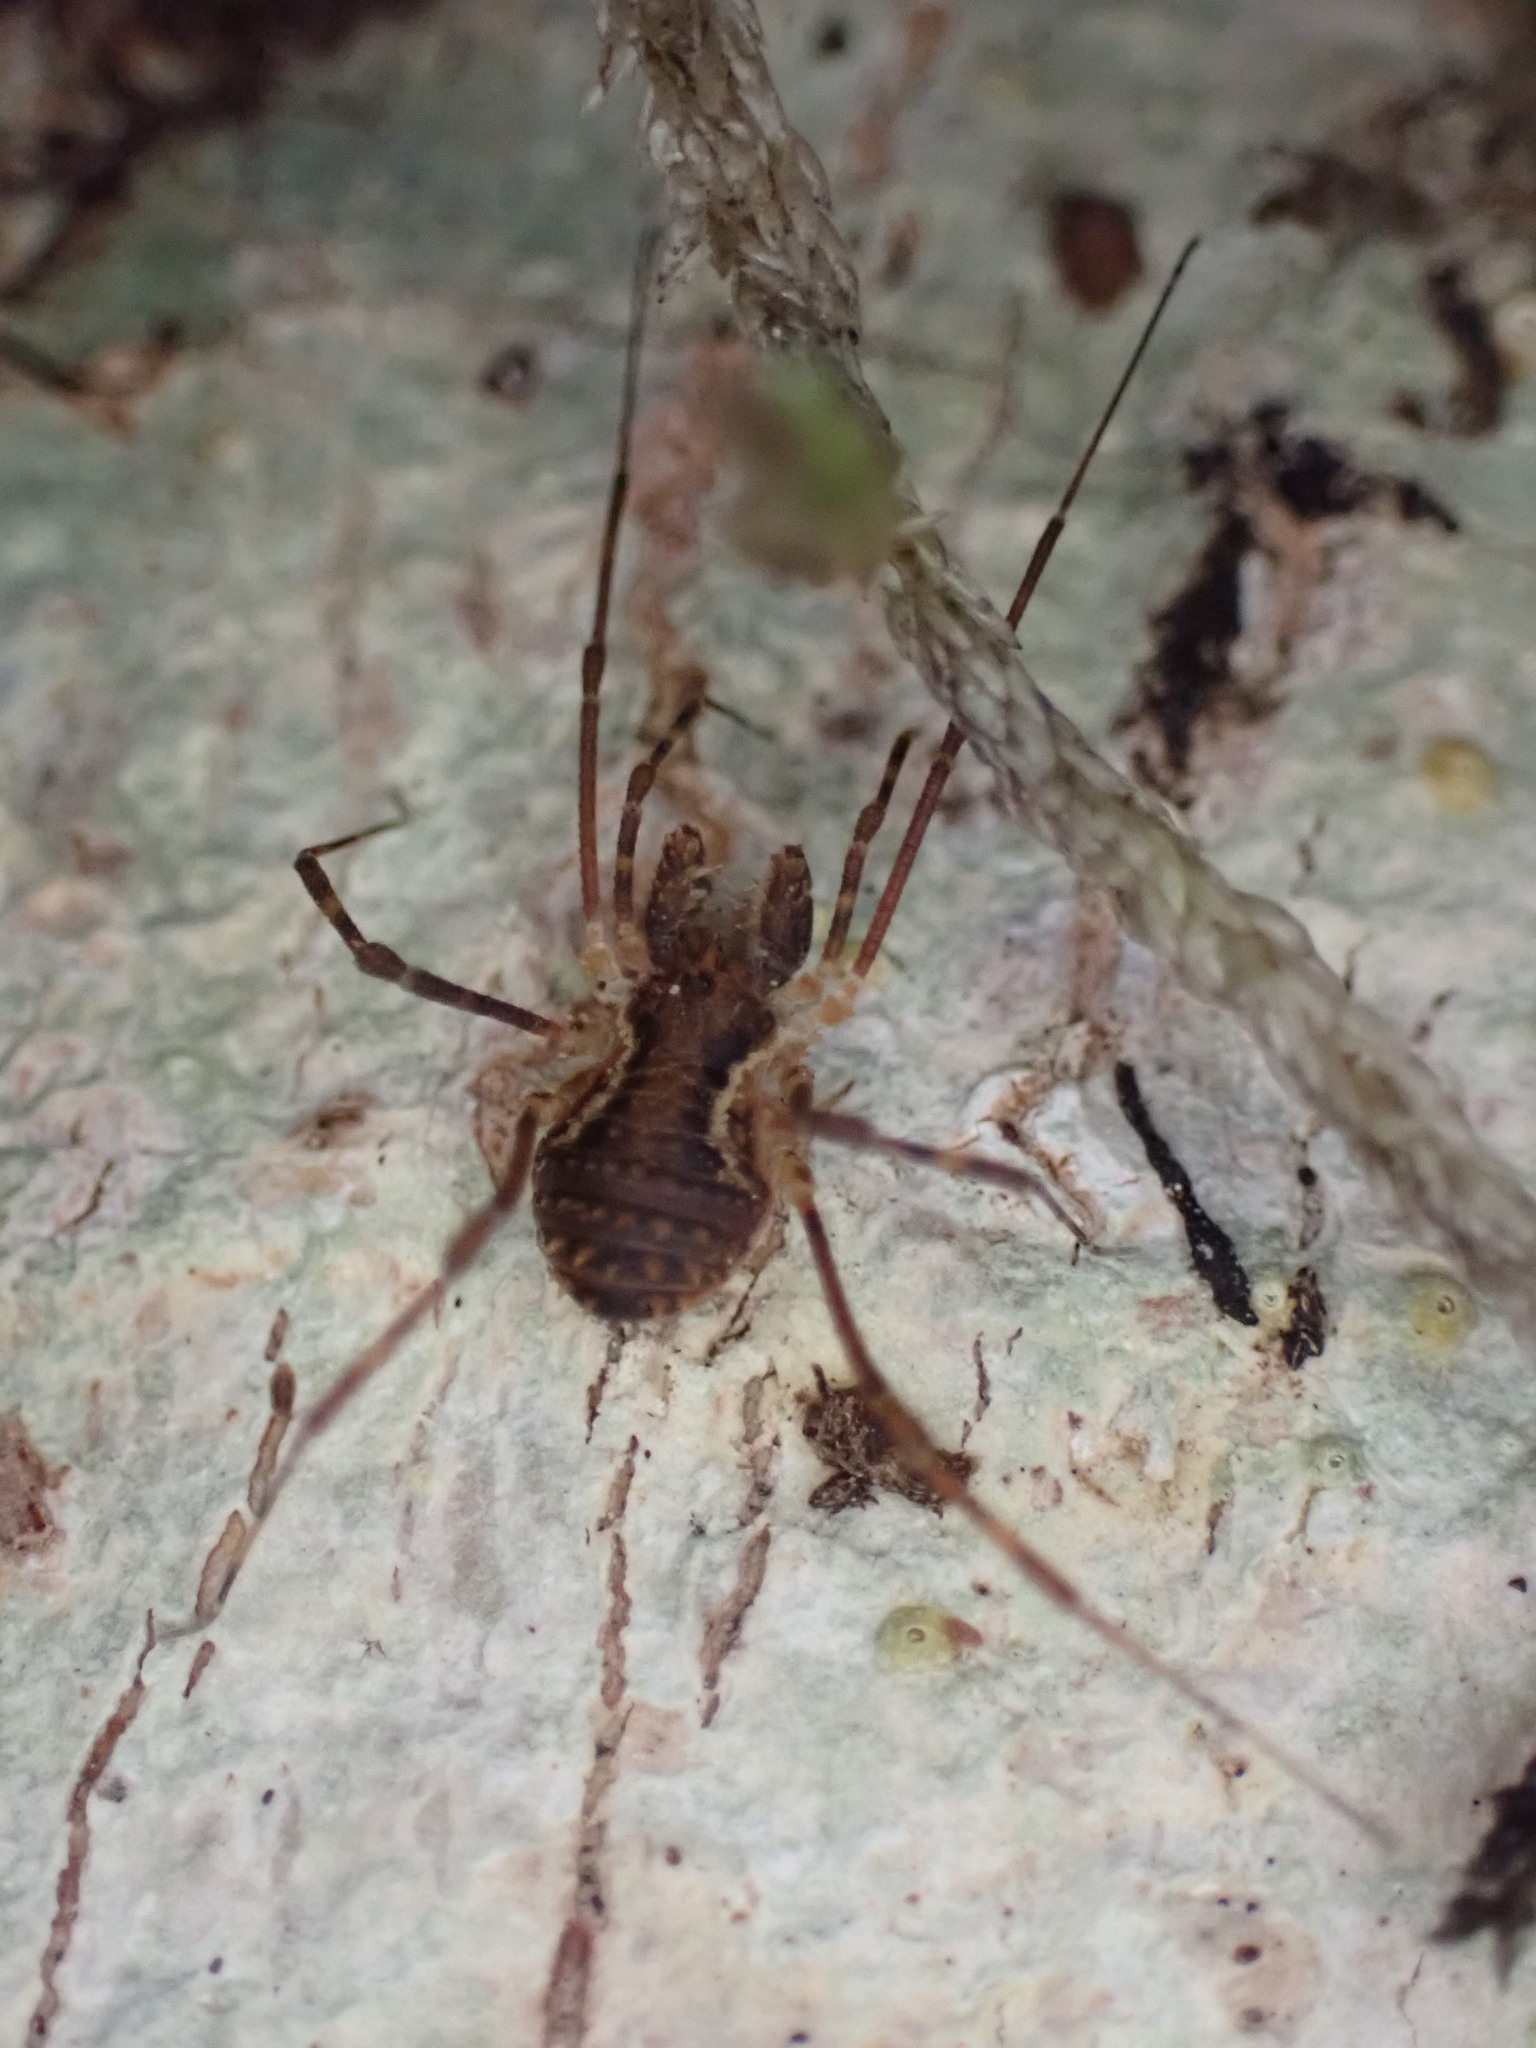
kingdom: Animalia
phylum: Arthropoda
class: Arachnida
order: Opiliones
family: Triaenonychidae
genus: Algidia
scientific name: Algidia chiltoni
